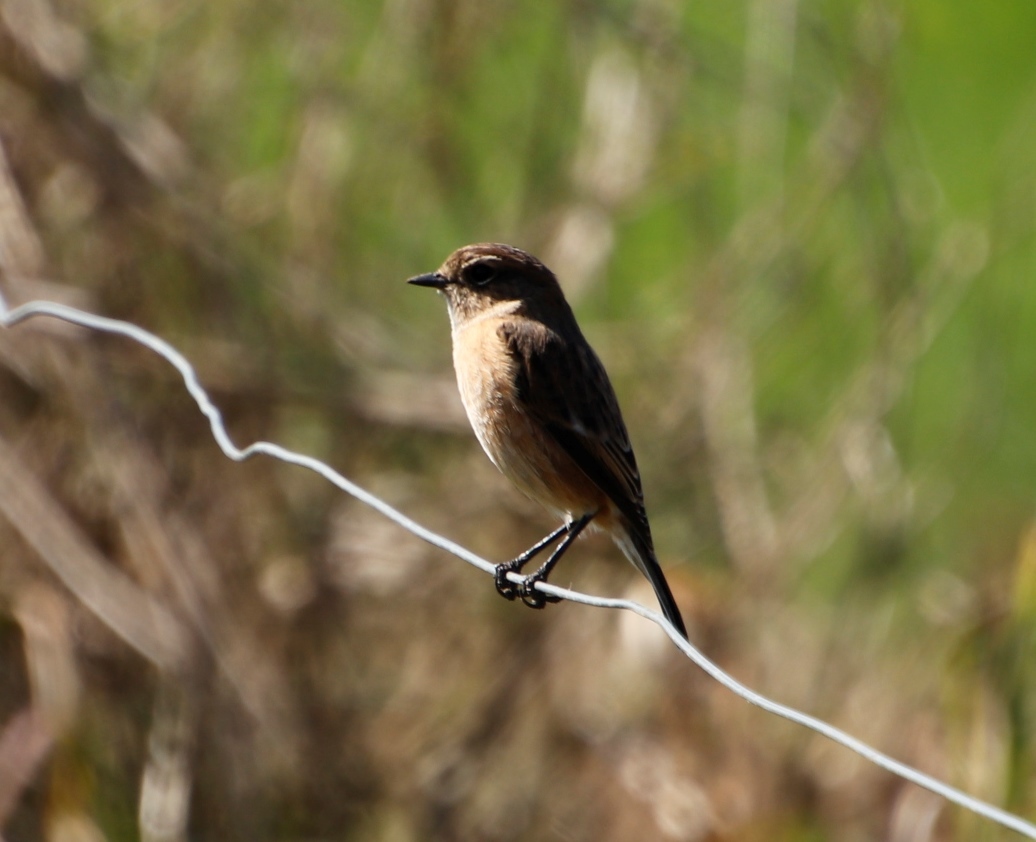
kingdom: Animalia
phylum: Chordata
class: Aves
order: Passeriformes
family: Muscicapidae
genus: Saxicola
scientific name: Saxicola torquatus
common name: African stonechat
